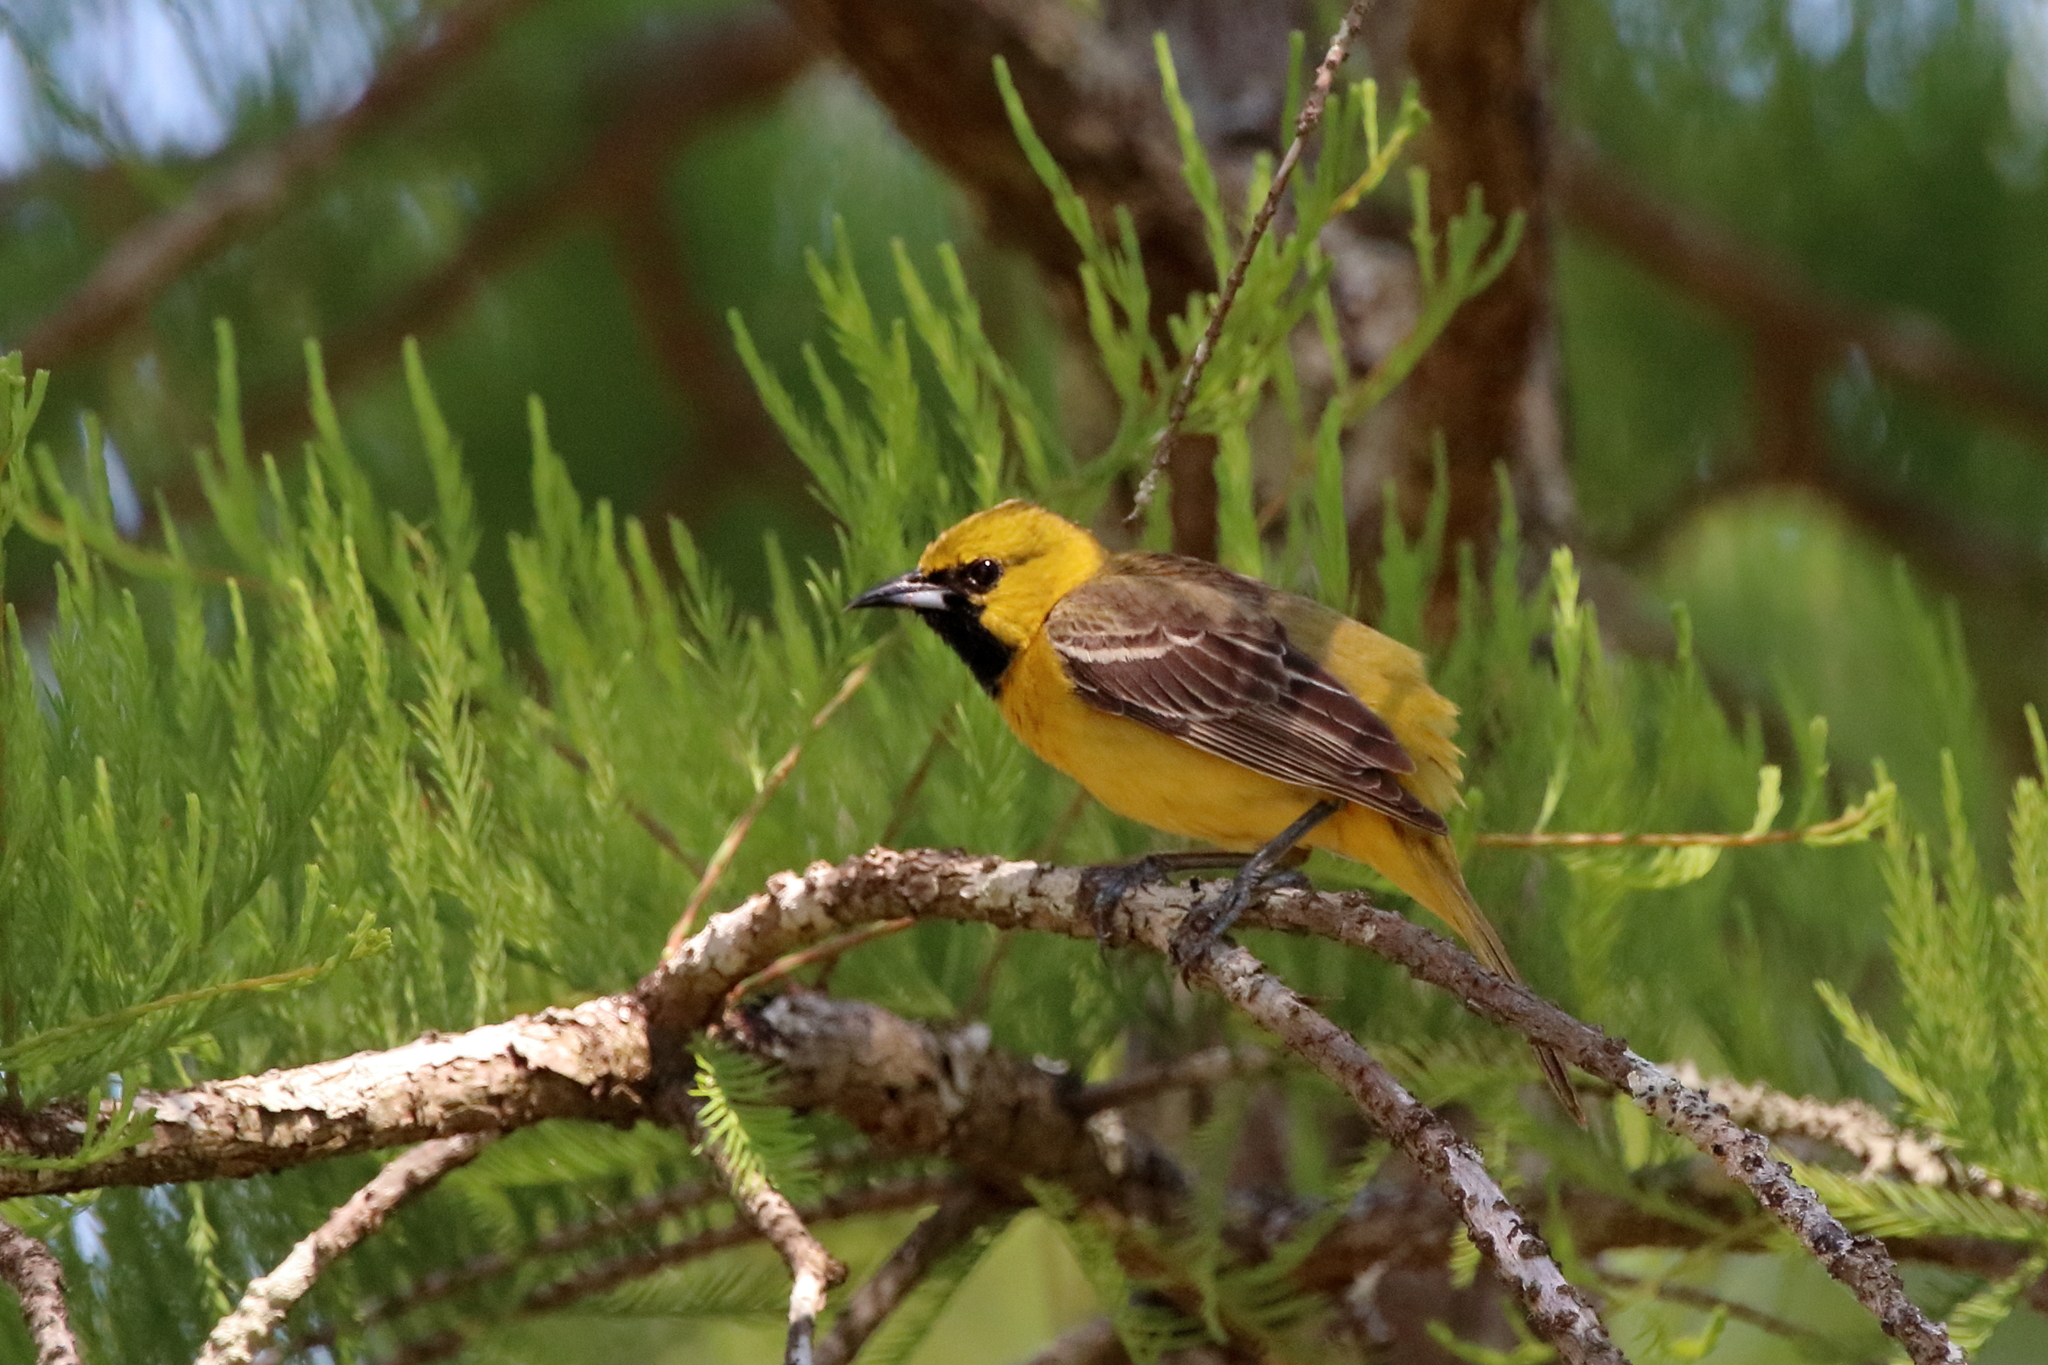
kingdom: Animalia
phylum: Chordata
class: Aves
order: Passeriformes
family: Icteridae
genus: Icterus
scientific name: Icterus spurius
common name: Orchard oriole
